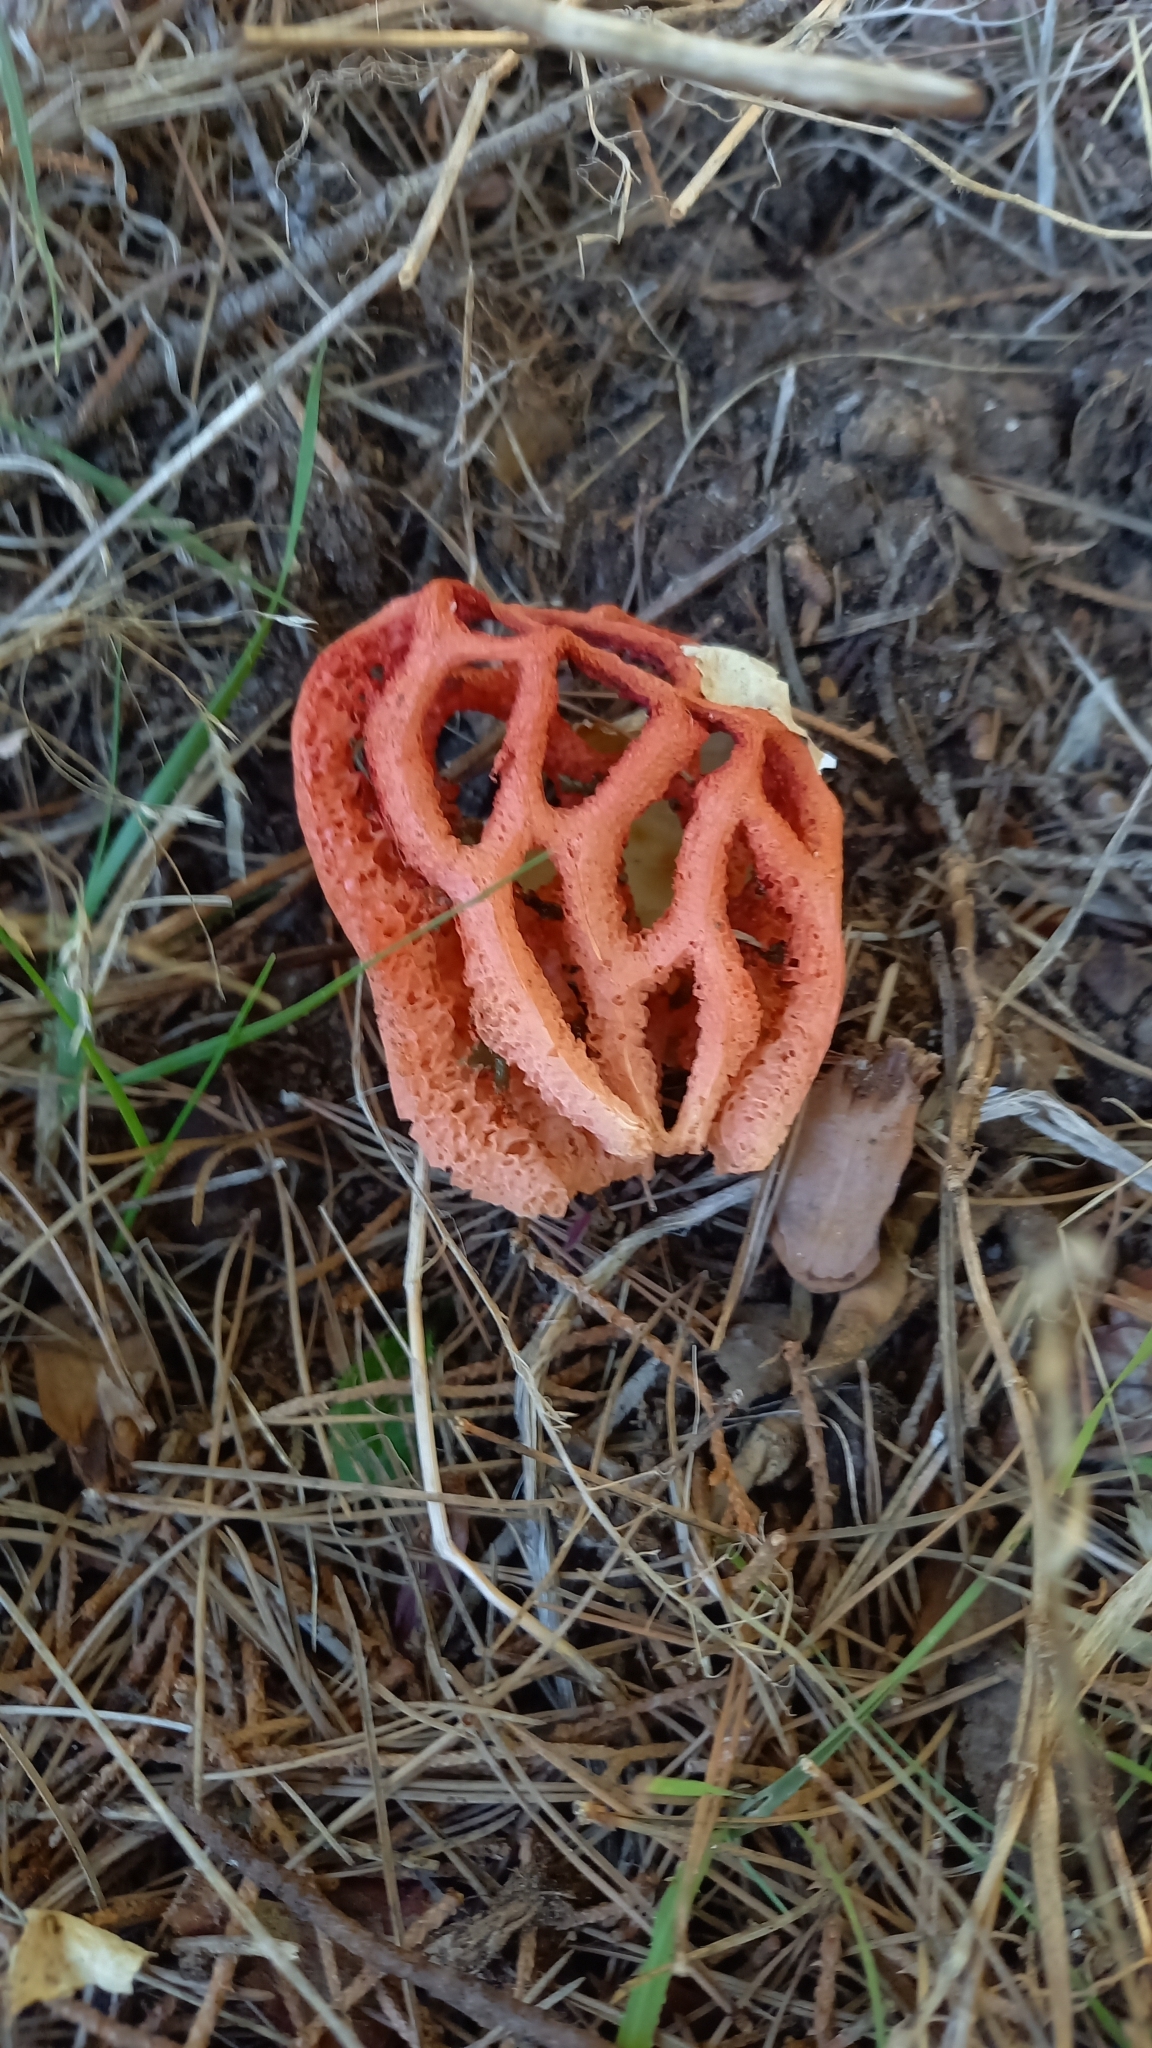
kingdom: Fungi
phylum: Basidiomycota
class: Agaricomycetes
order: Phallales
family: Phallaceae
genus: Clathrus
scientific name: Clathrus ruber
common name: Red cage
